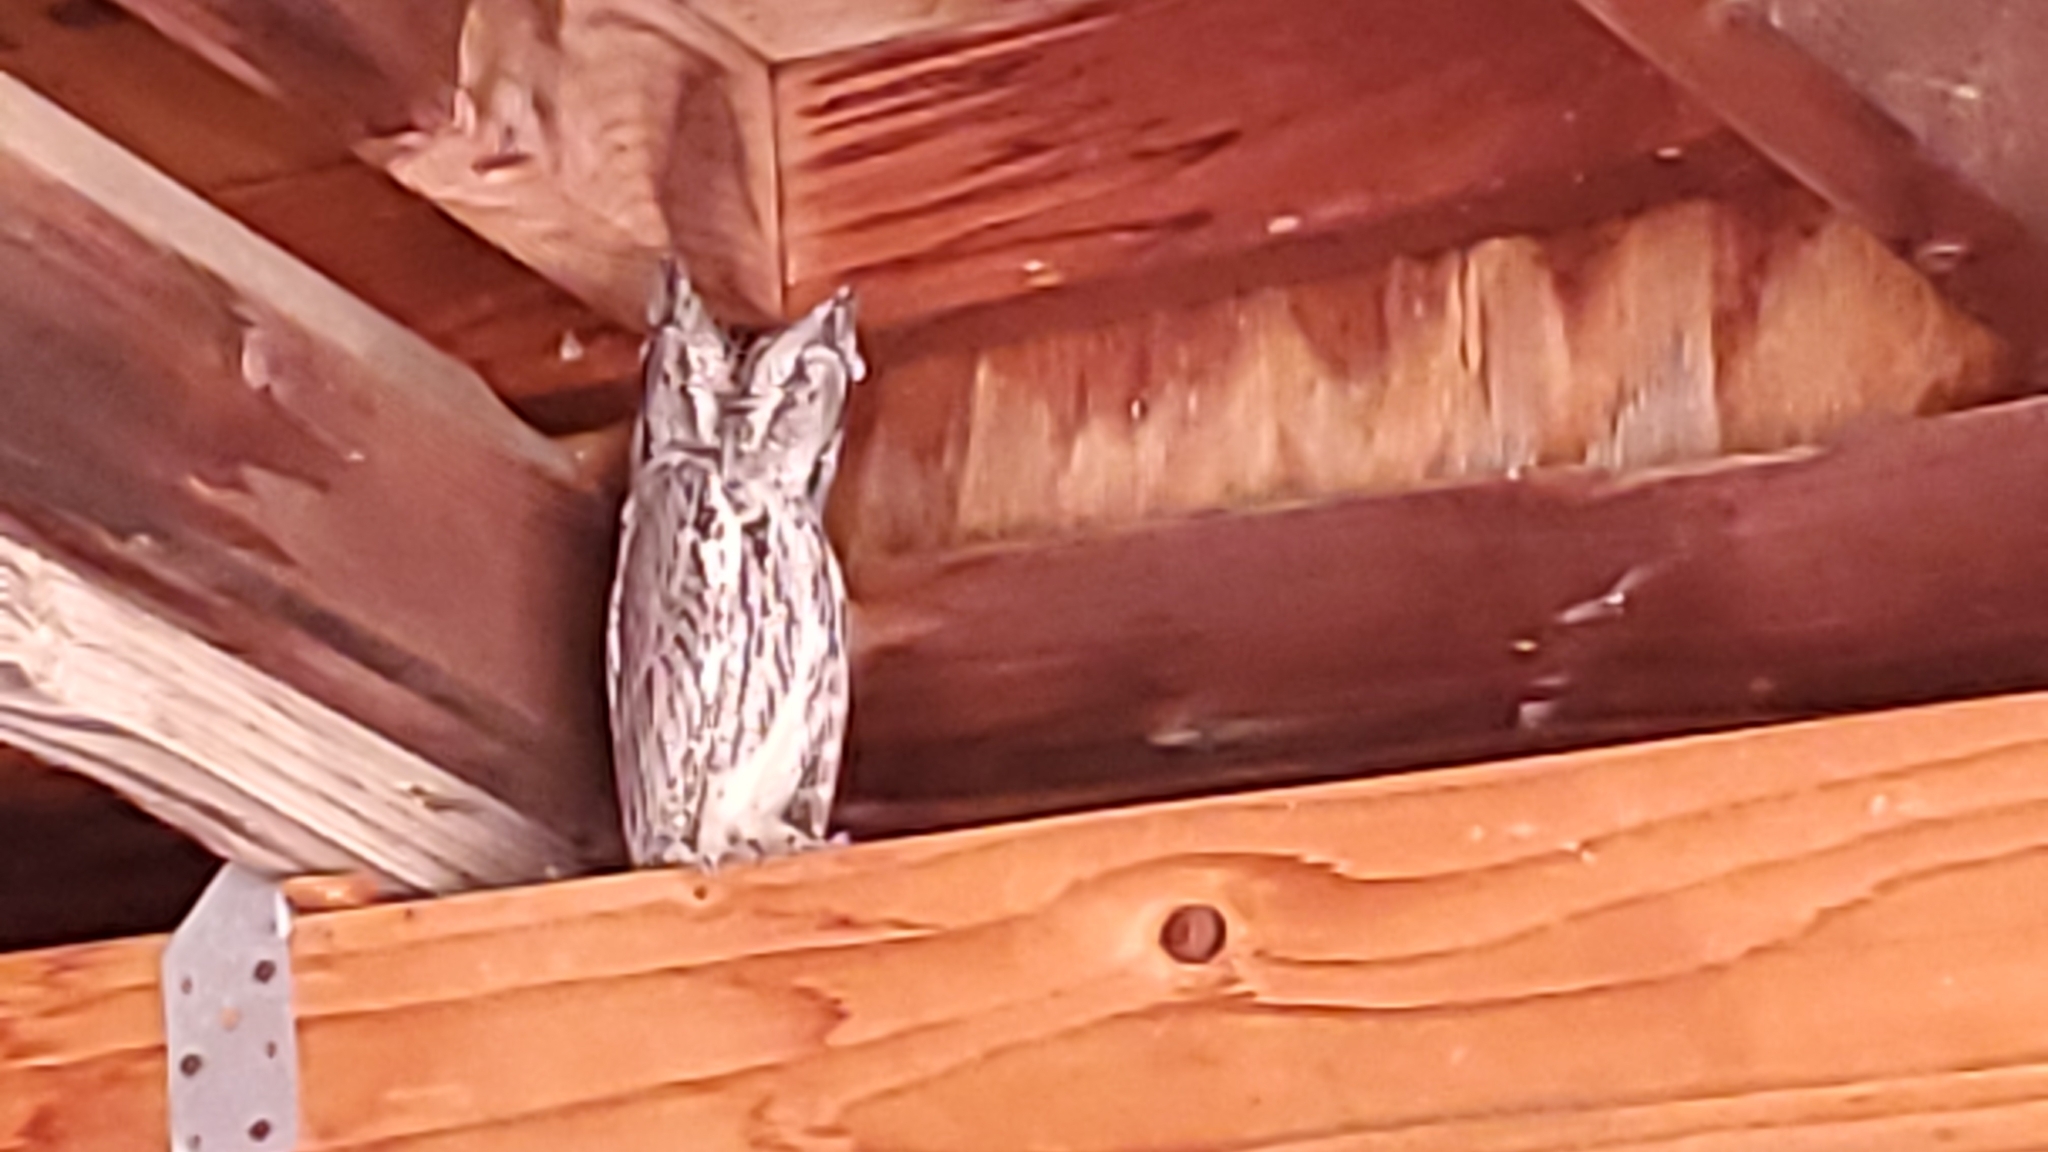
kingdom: Animalia
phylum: Chordata
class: Aves
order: Strigiformes
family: Strigidae
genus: Megascops
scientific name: Megascops kennicottii
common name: Western screech-owl
